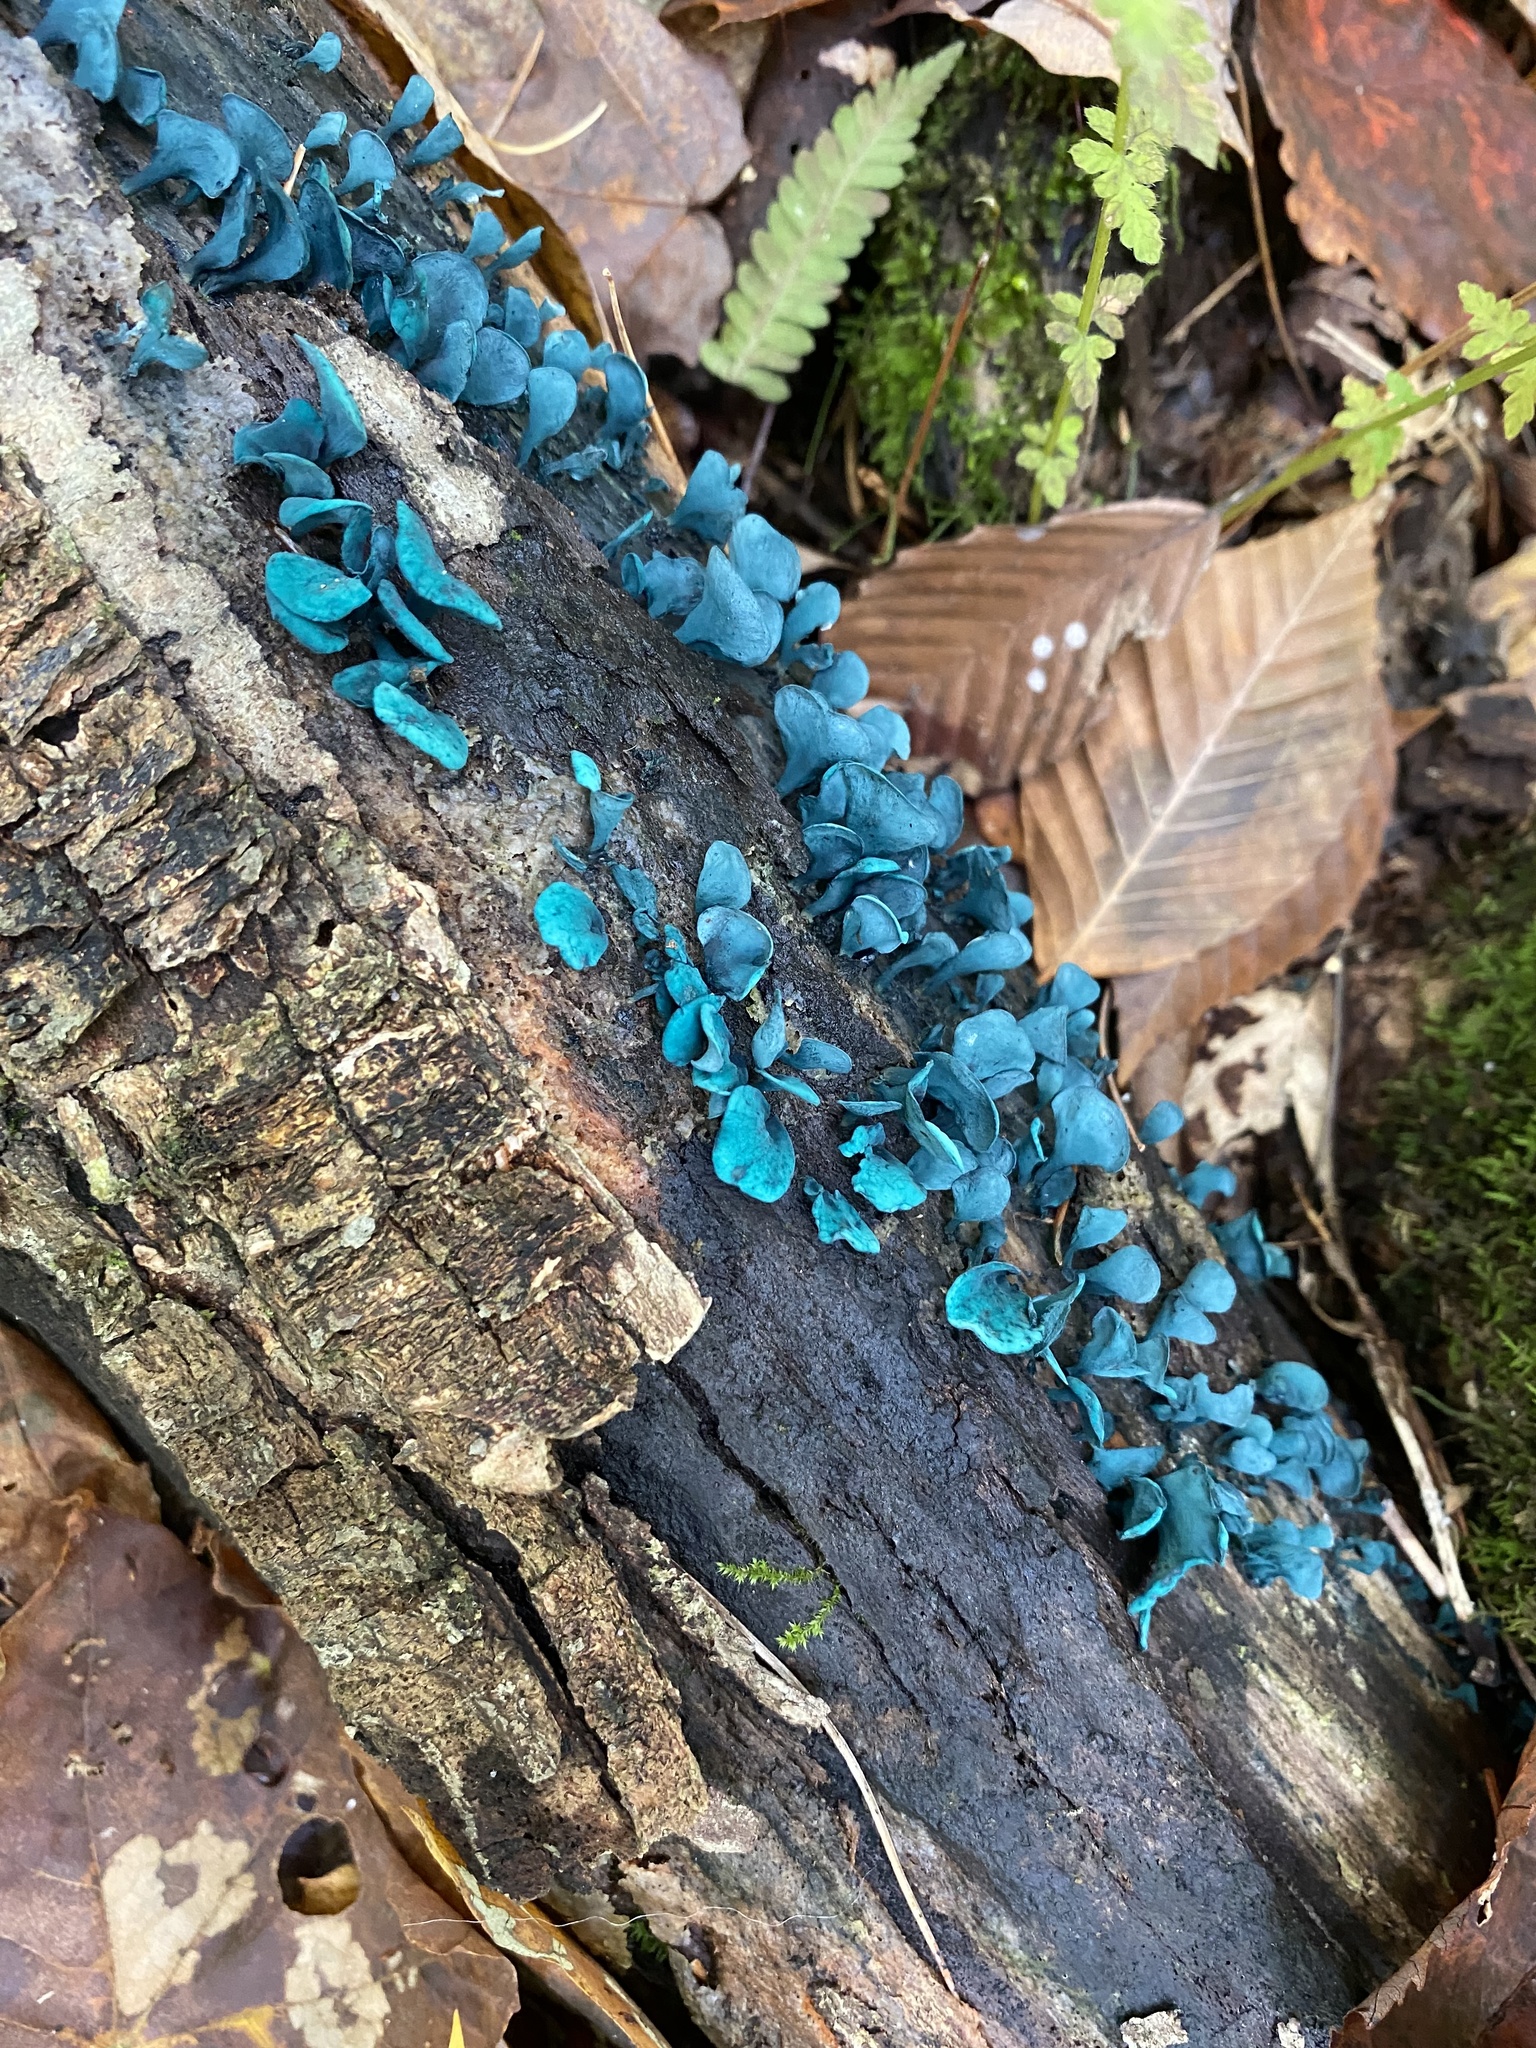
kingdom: Fungi
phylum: Ascomycota
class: Leotiomycetes
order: Helotiales
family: Chlorociboriaceae
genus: Chlorociboria
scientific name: Chlorociboria aeruginascens
